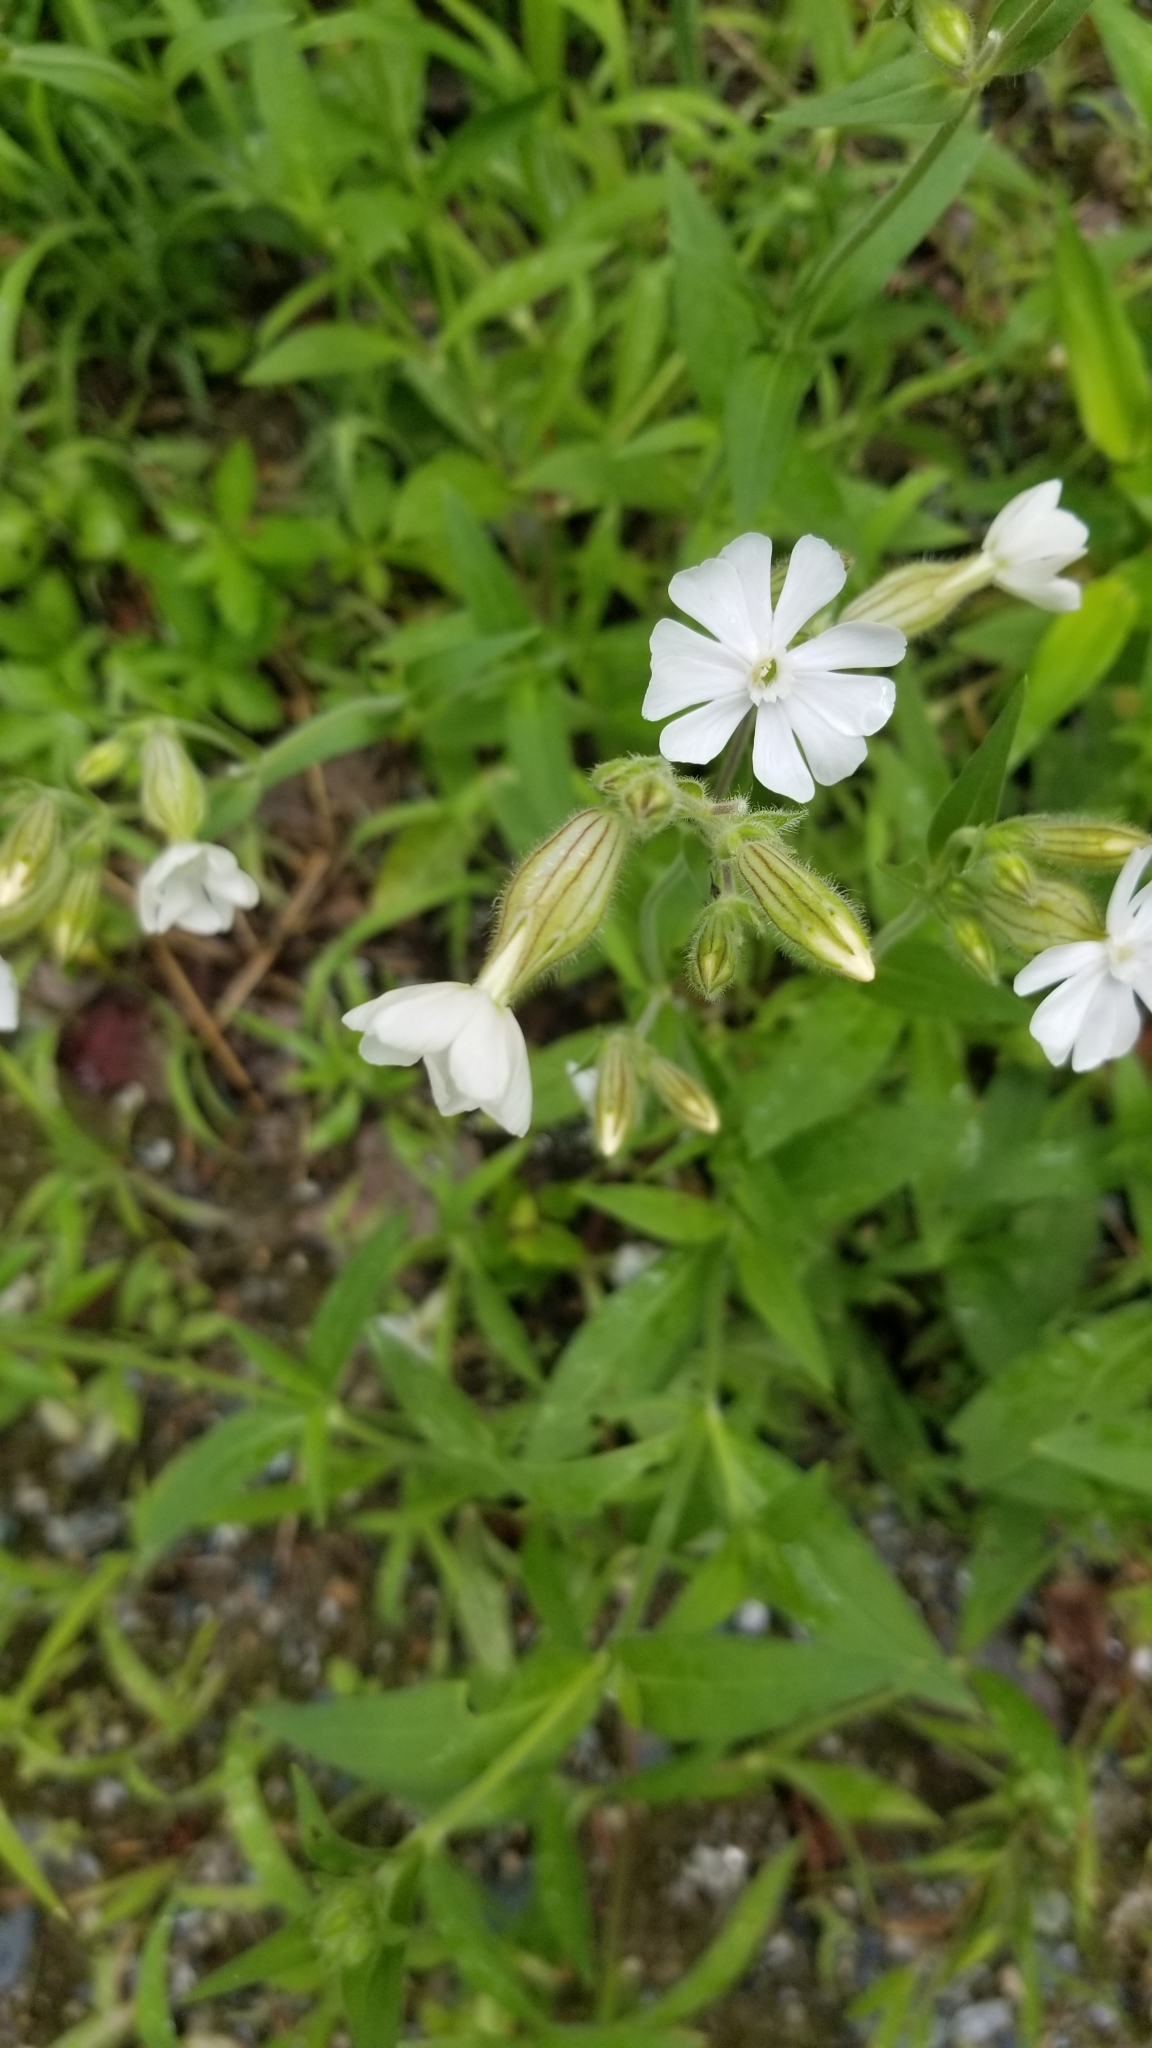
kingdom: Plantae
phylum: Tracheophyta
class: Magnoliopsida
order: Caryophyllales
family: Caryophyllaceae
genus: Silene
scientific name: Silene latifolia
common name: White campion
